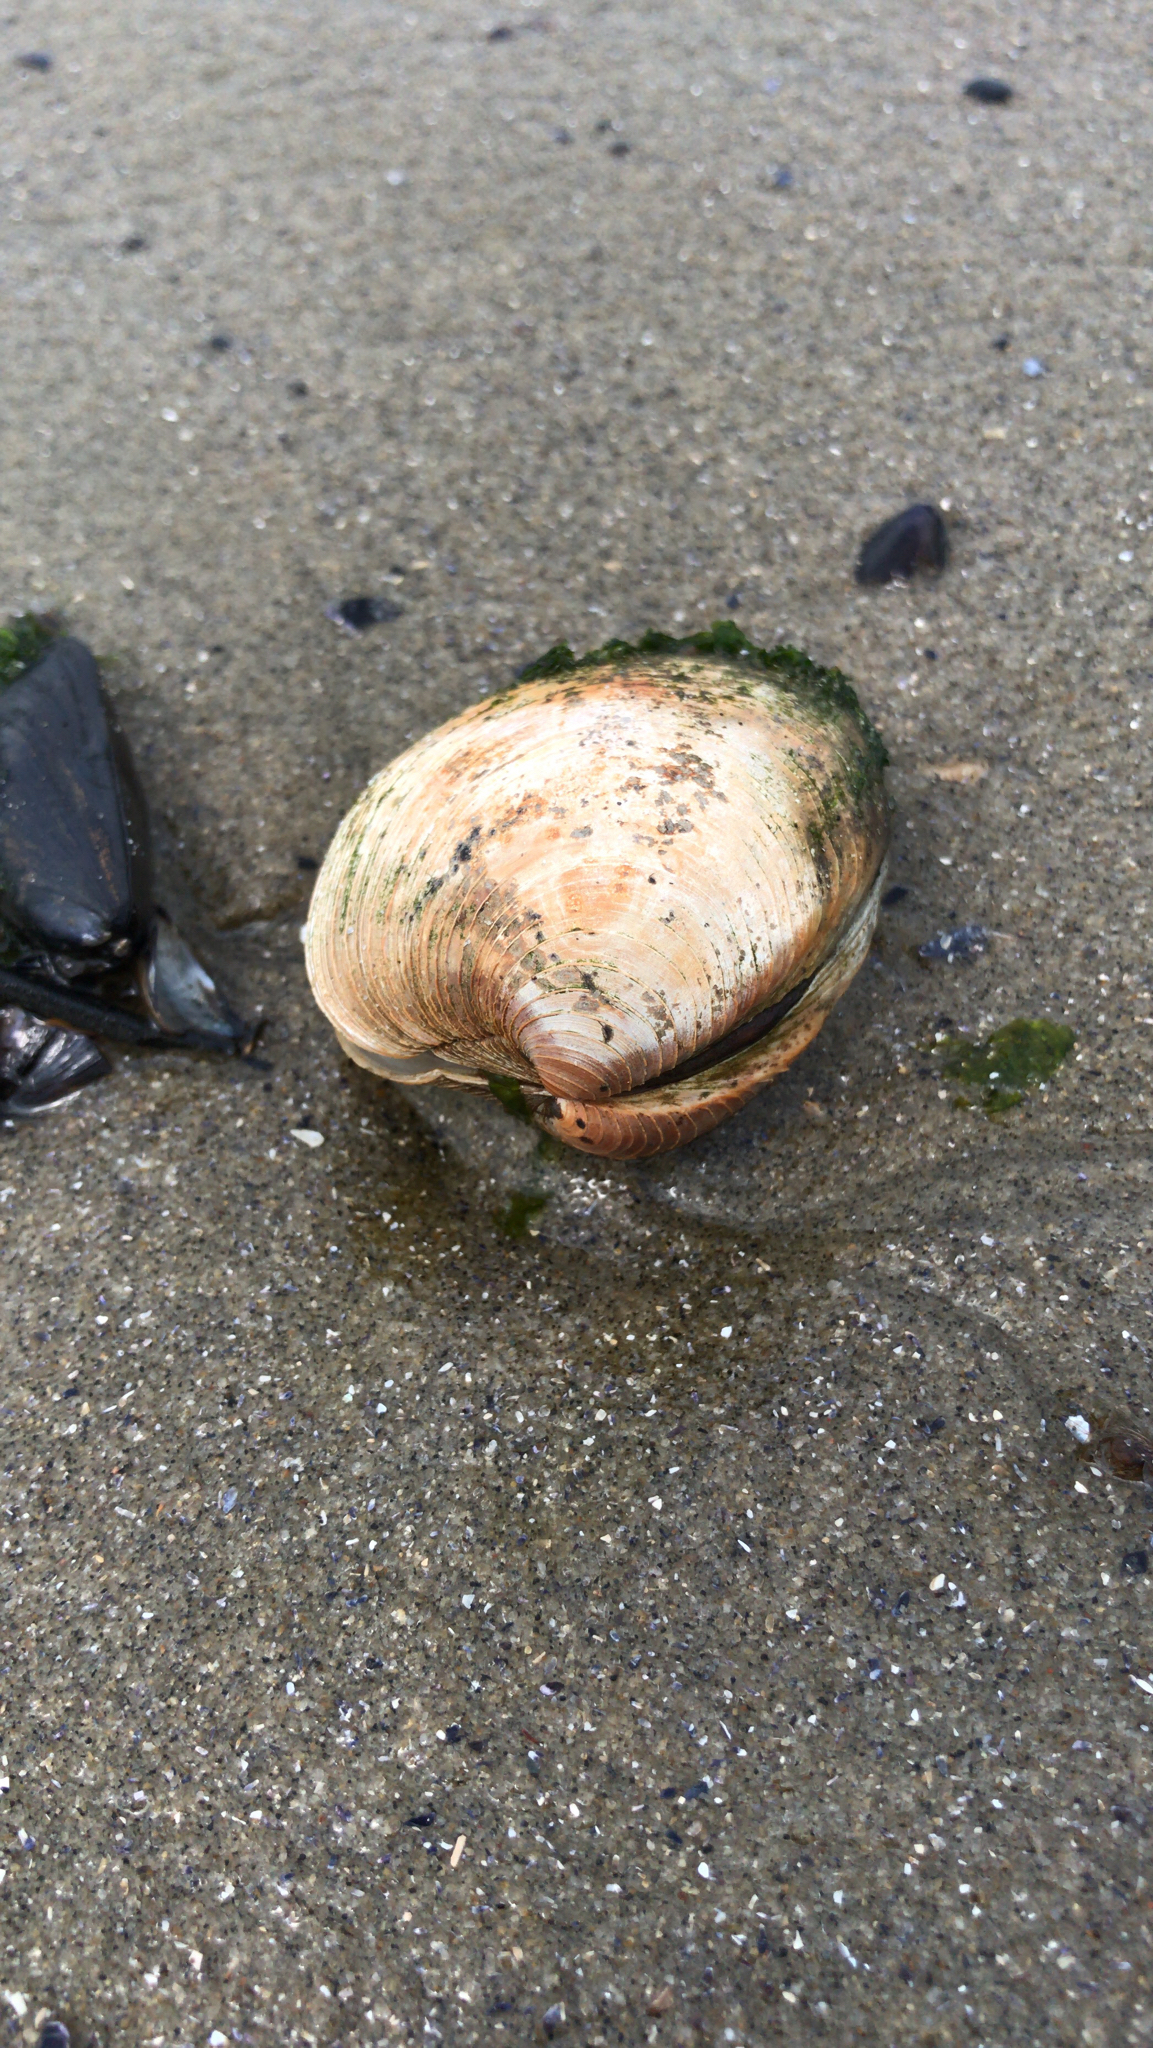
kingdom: Animalia
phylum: Mollusca
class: Bivalvia
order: Venerida
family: Veneridae
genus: Mercenaria
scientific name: Mercenaria mercenaria
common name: American hard-shelled clam
